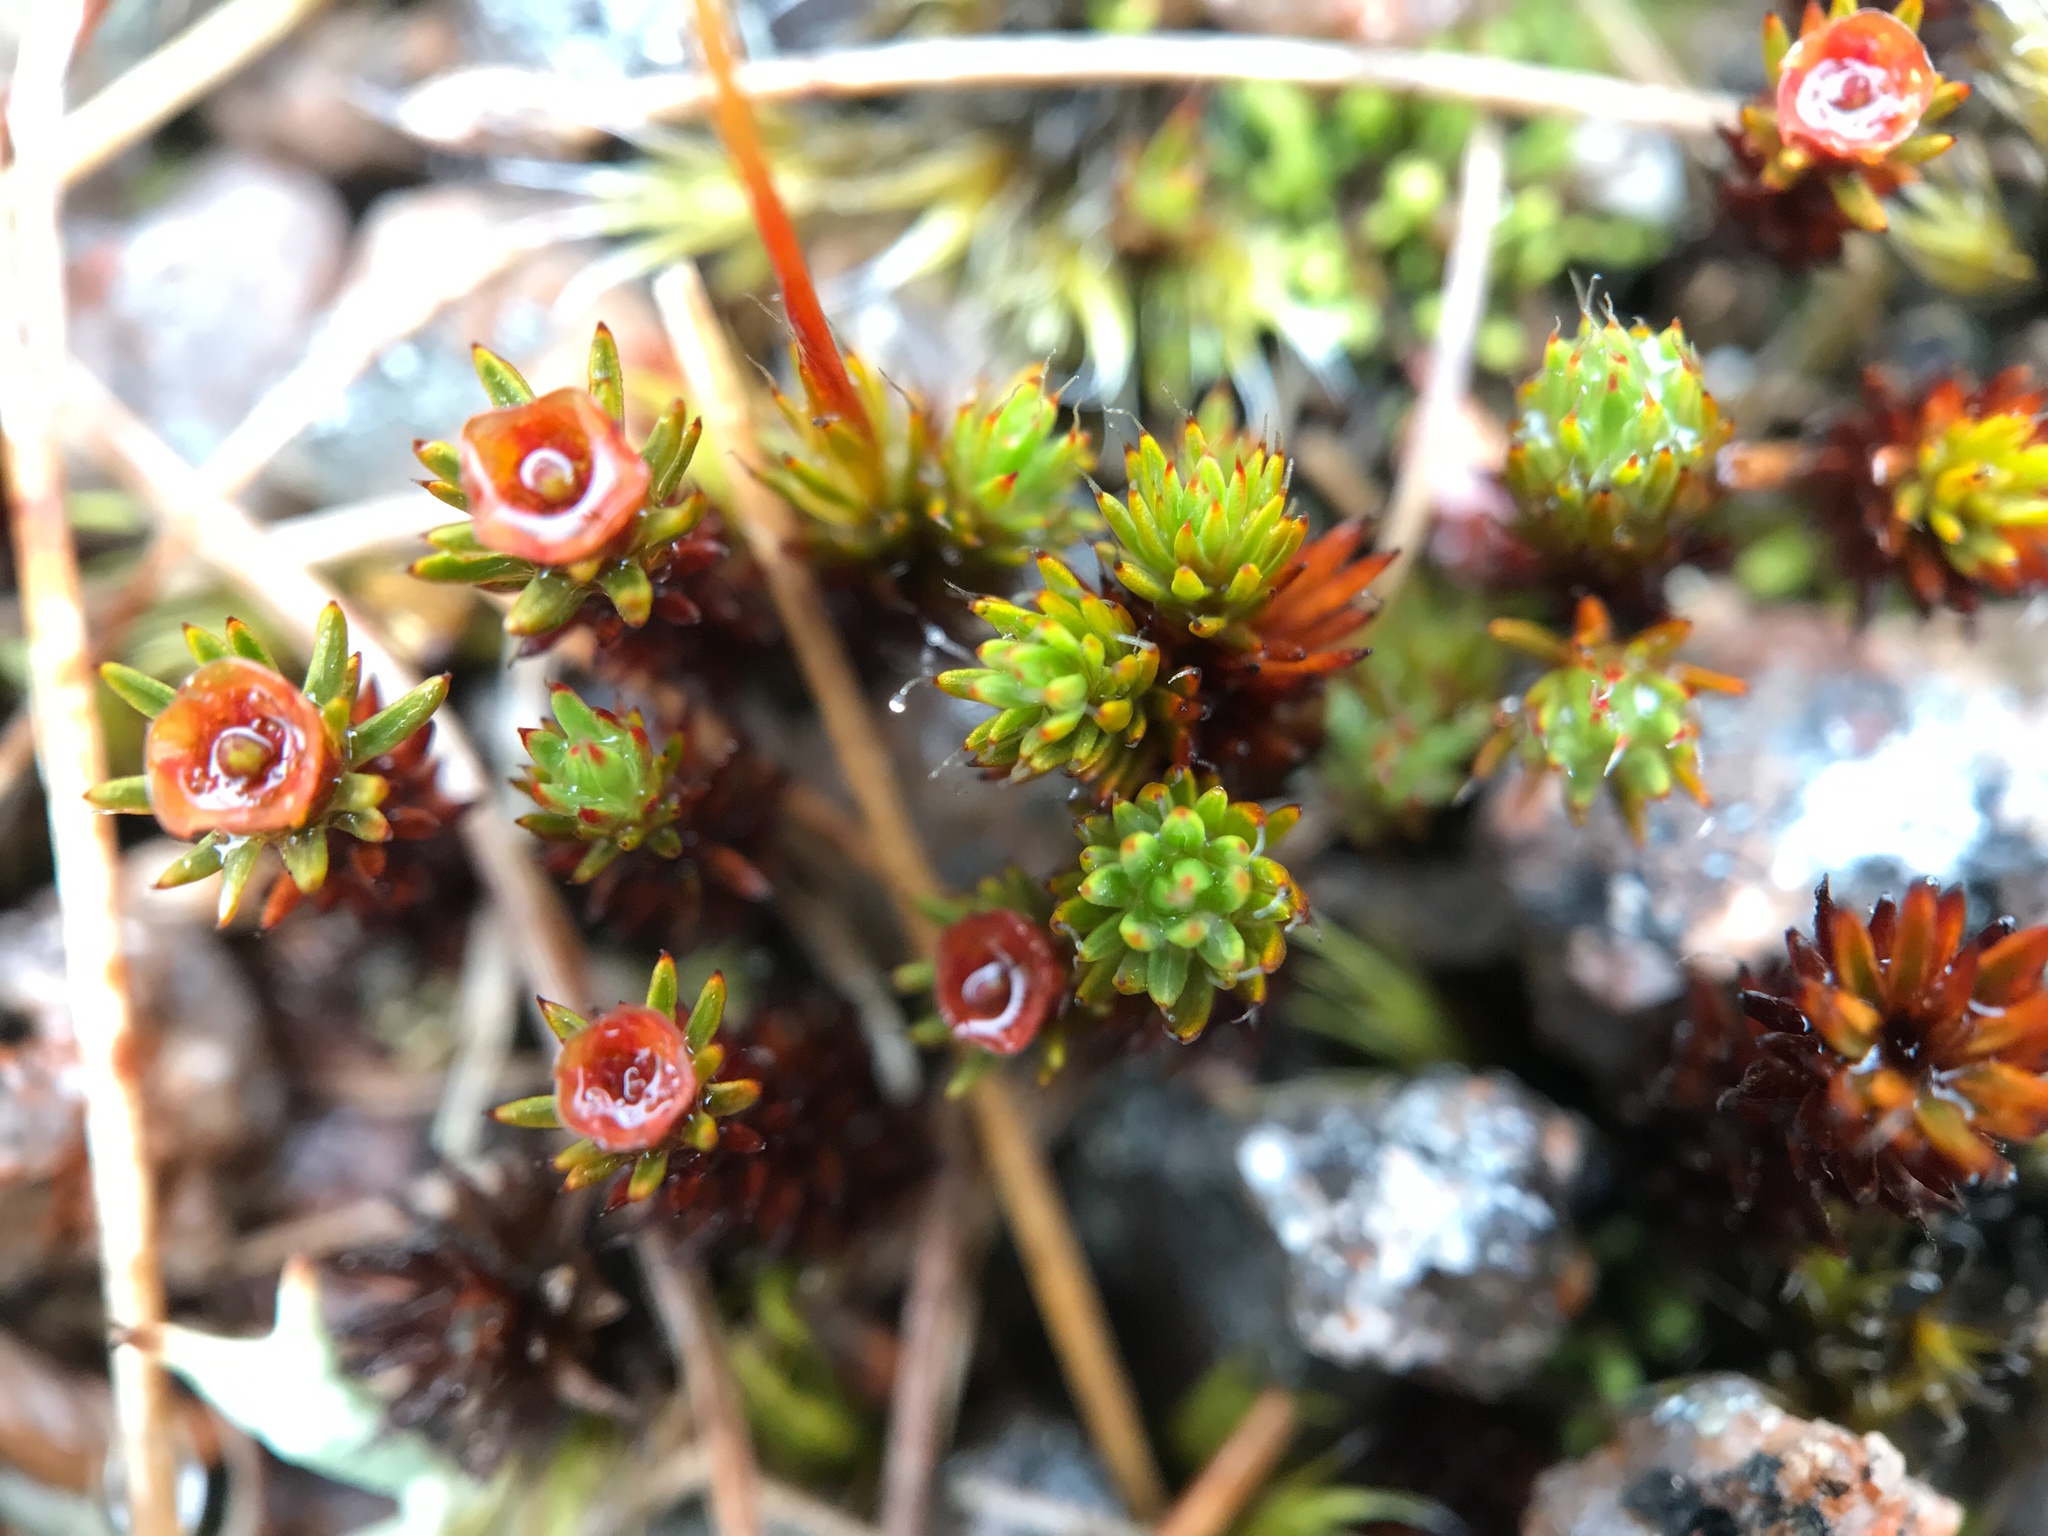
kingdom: Plantae
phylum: Bryophyta
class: Polytrichopsida
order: Polytrichales
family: Polytrichaceae
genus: Polytrichum
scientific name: Polytrichum piliferum
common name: Bristly haircap
